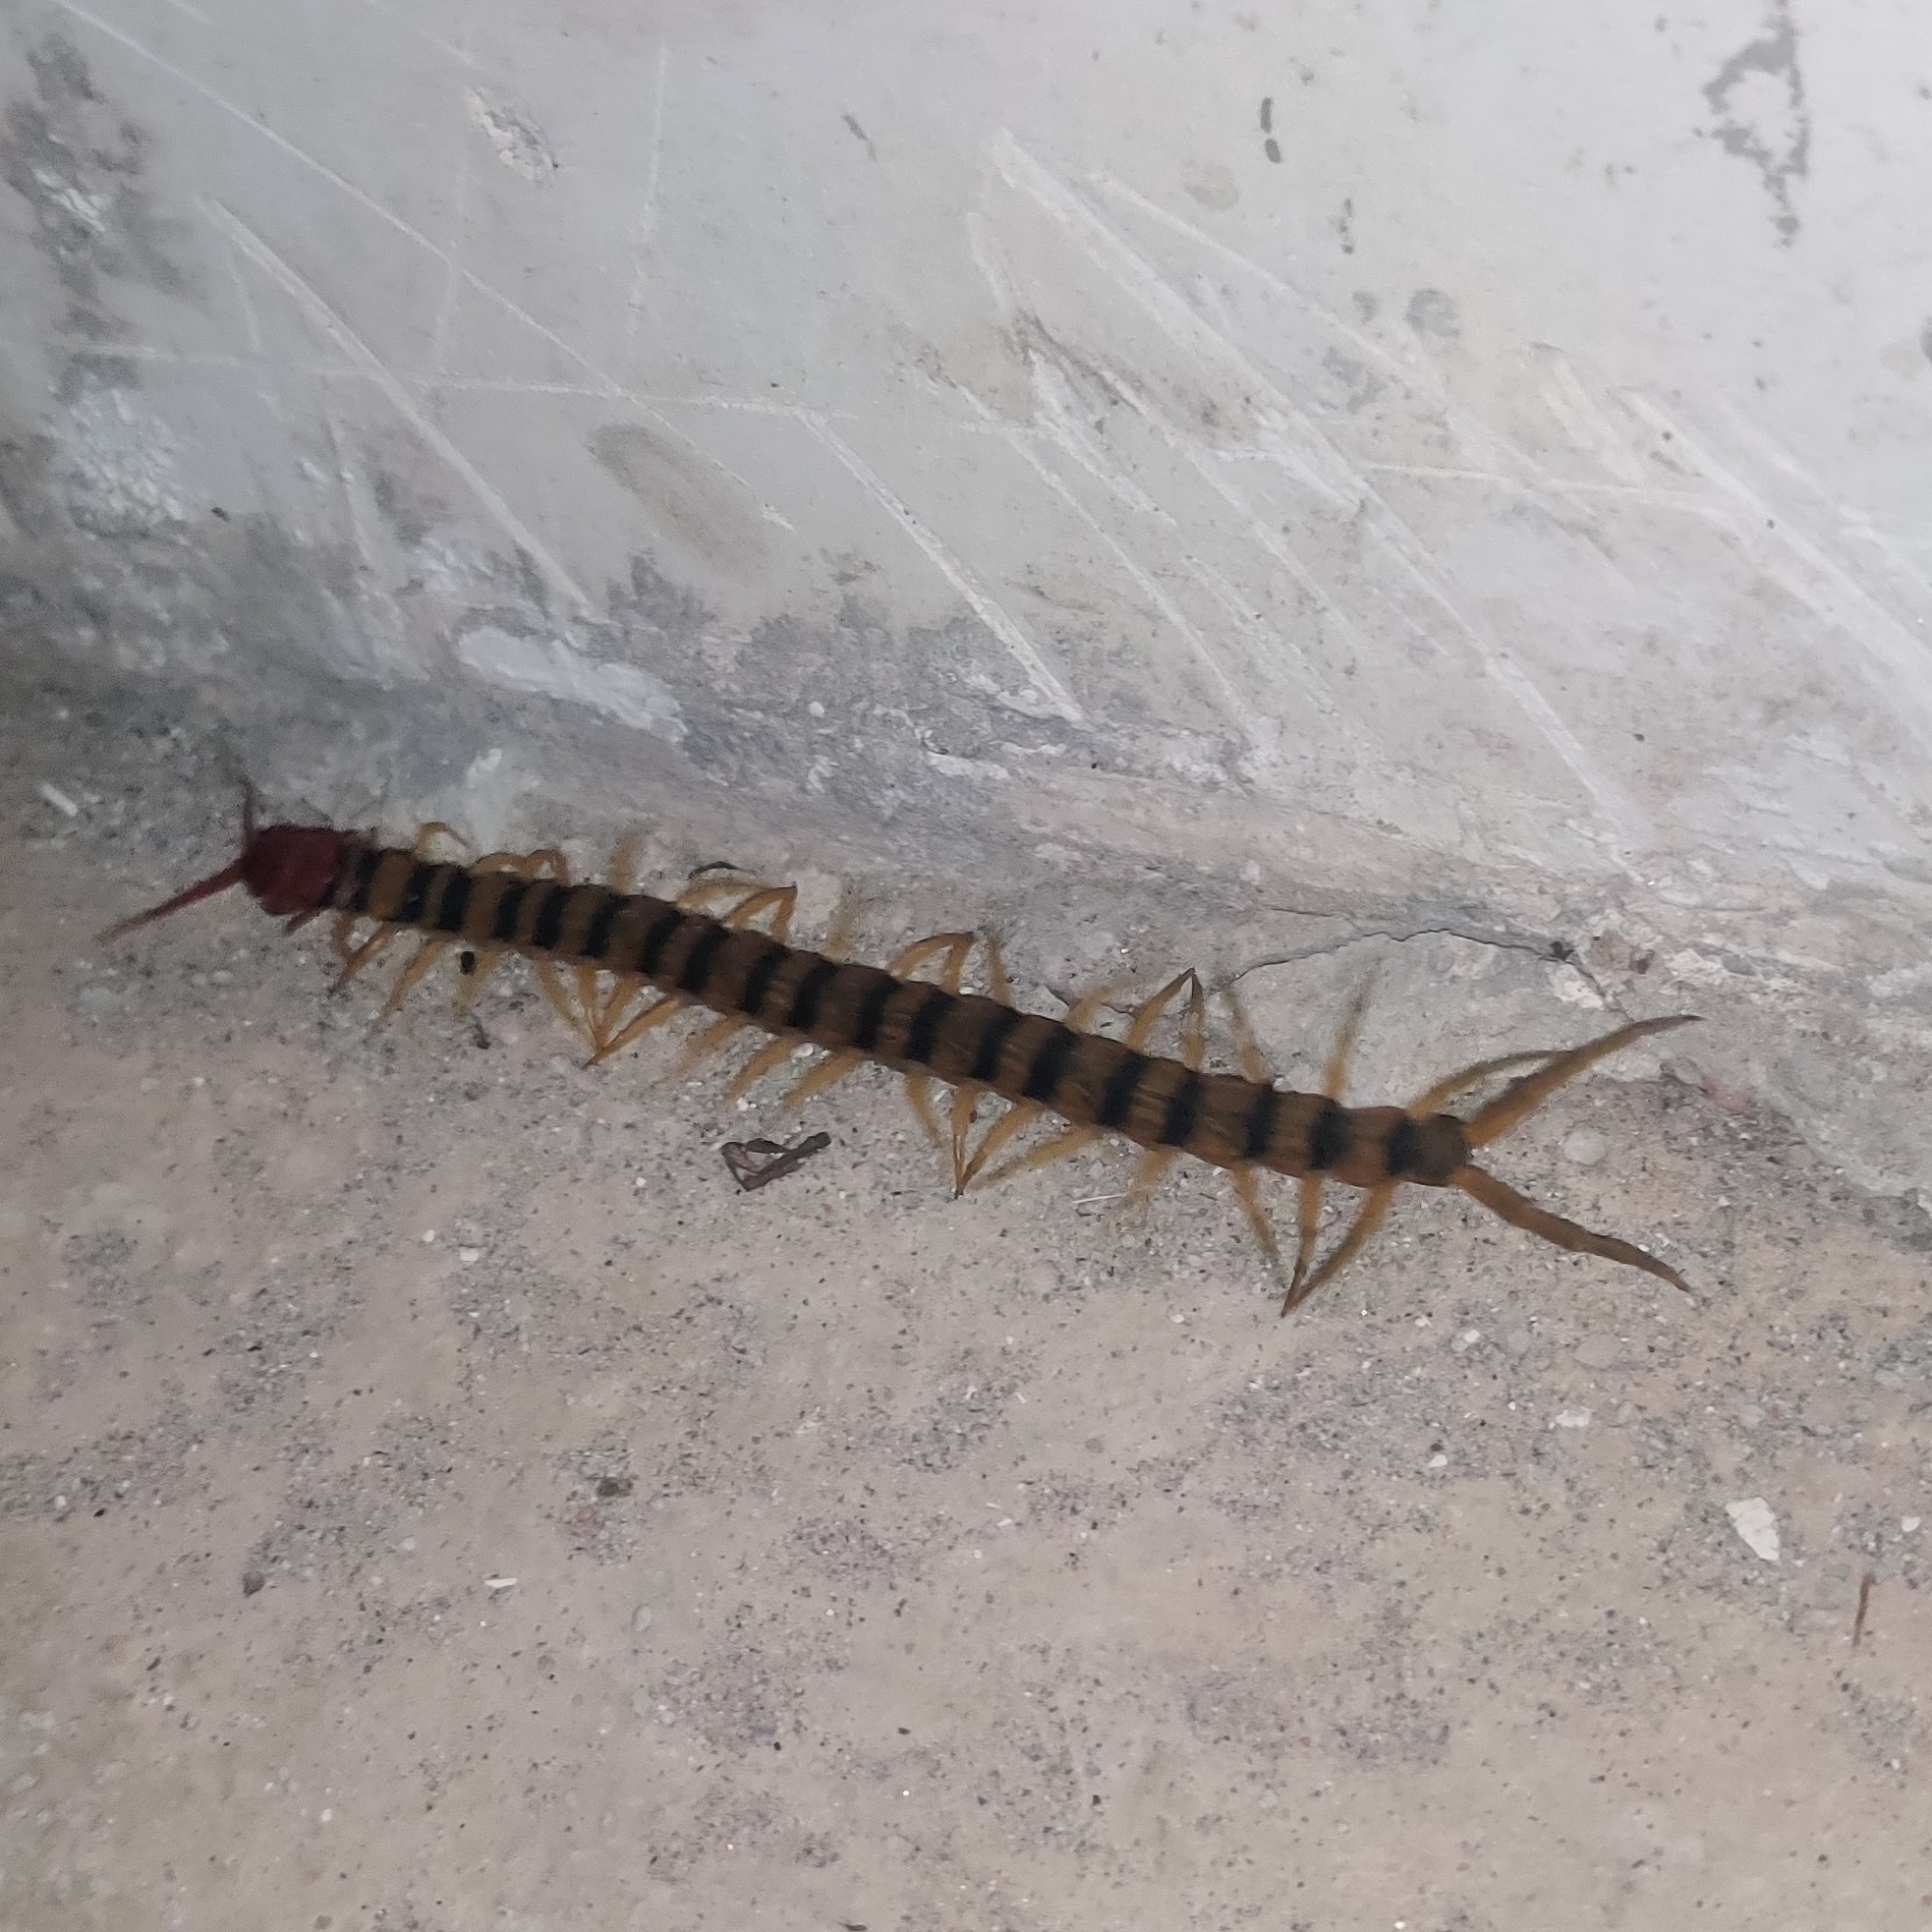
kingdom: Animalia
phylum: Arthropoda
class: Chilopoda
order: Scolopendromorpha
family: Scolopendridae
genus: Scolopendra
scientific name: Scolopendra morsitans
